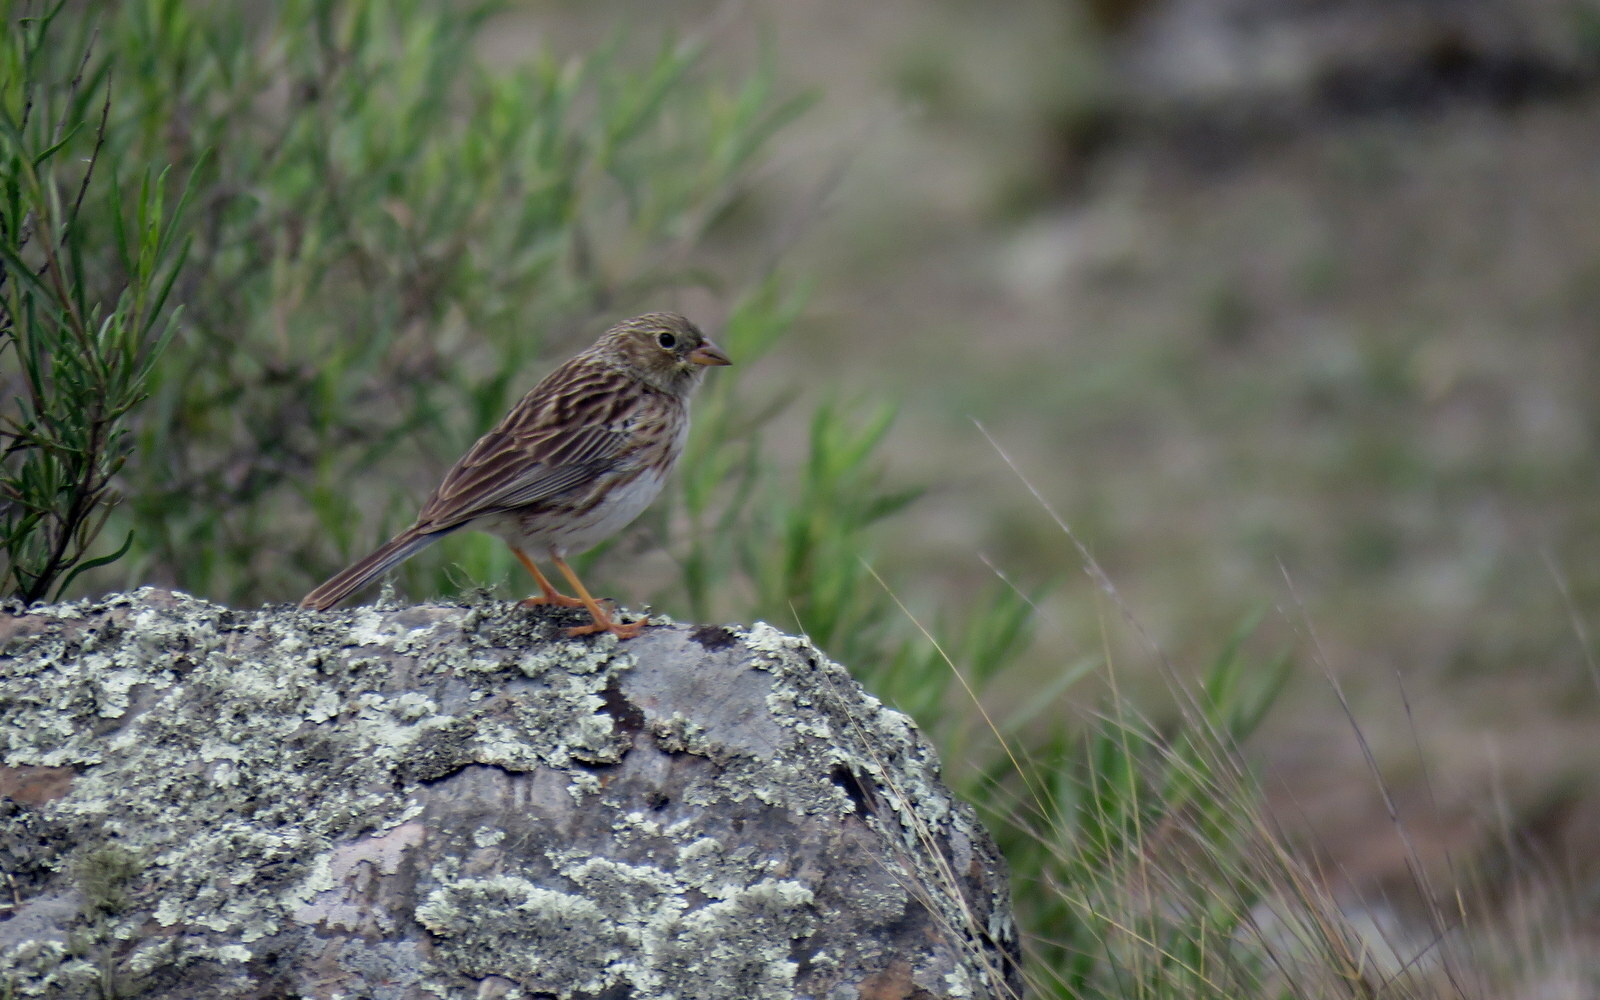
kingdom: Animalia
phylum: Chordata
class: Aves
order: Passeriformes
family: Thraupidae
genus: Porphyrospiza
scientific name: Porphyrospiza alaudina
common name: Band-tailed sierra finch
